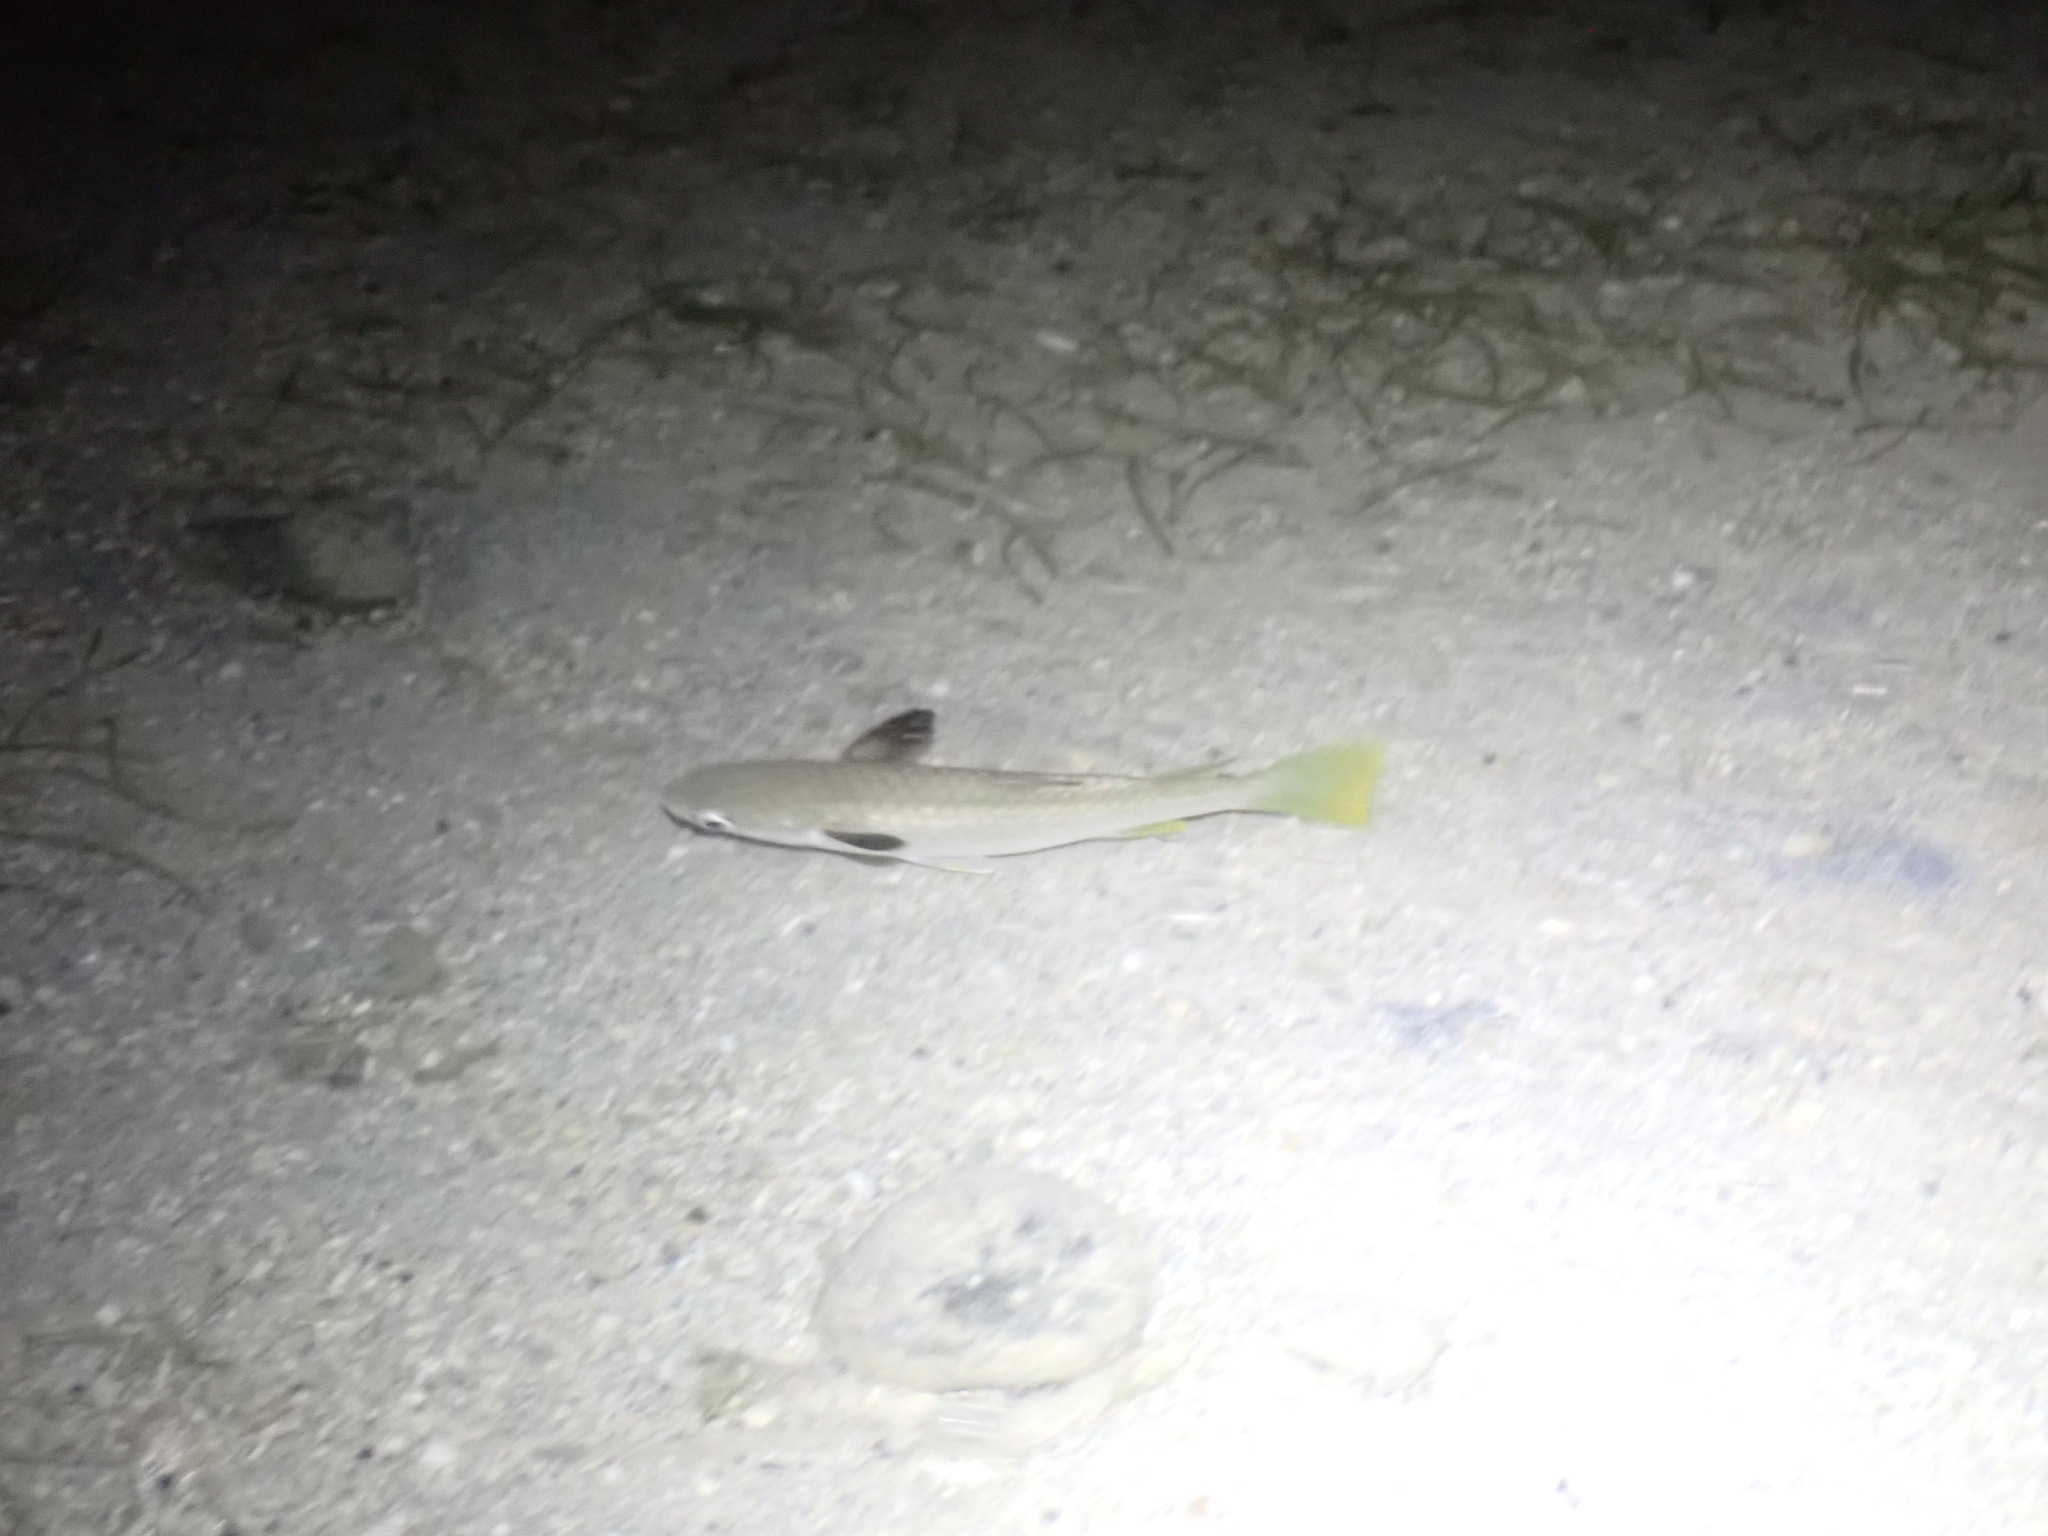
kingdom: Animalia
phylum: Chordata
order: Mugiliformes
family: Mugilidae
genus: Ellochelon
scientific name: Ellochelon vaigiensis
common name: Squaretail mullet
